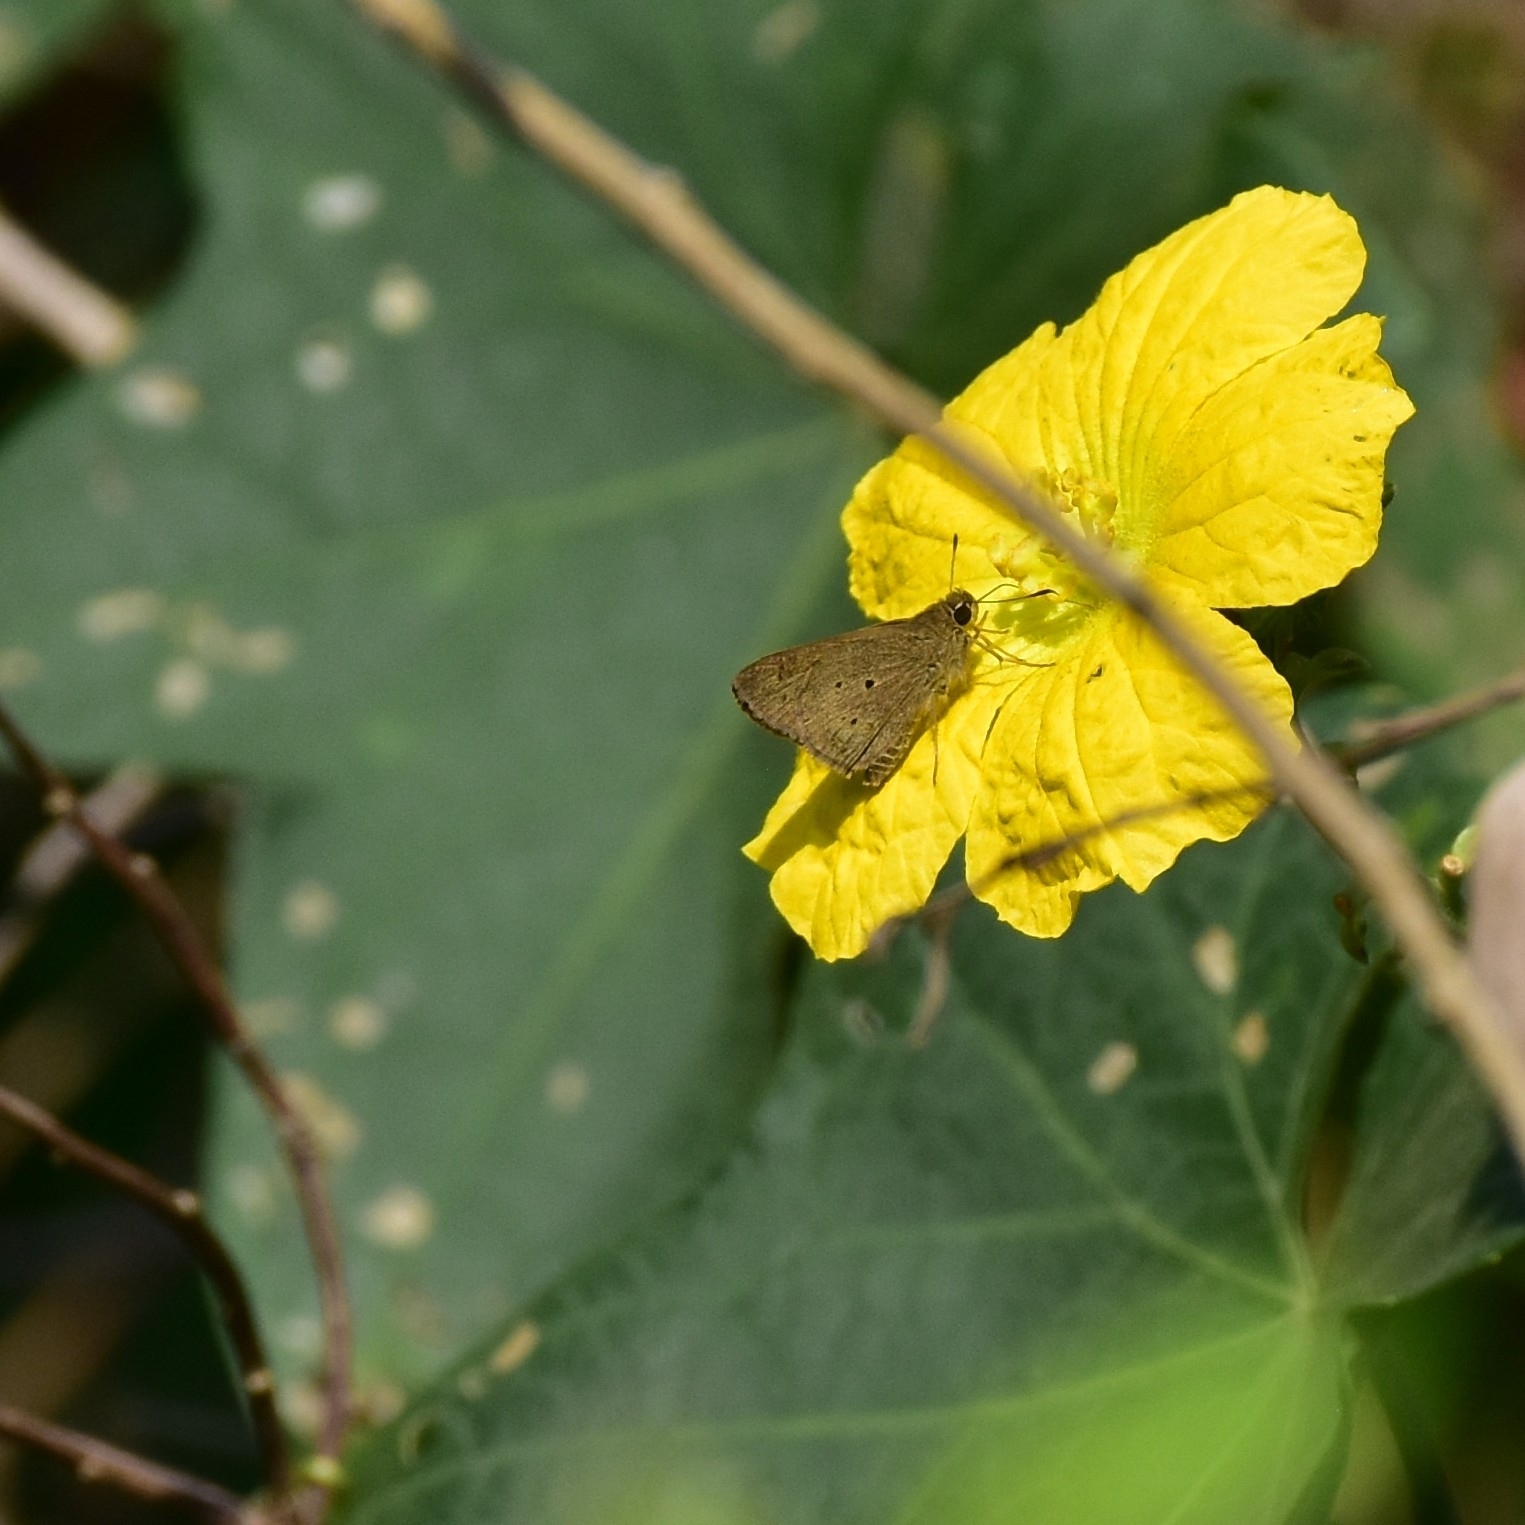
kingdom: Animalia
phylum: Arthropoda
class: Insecta
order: Lepidoptera
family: Hesperiidae
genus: Suastus
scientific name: Suastus gremius
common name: Indian palm bob
